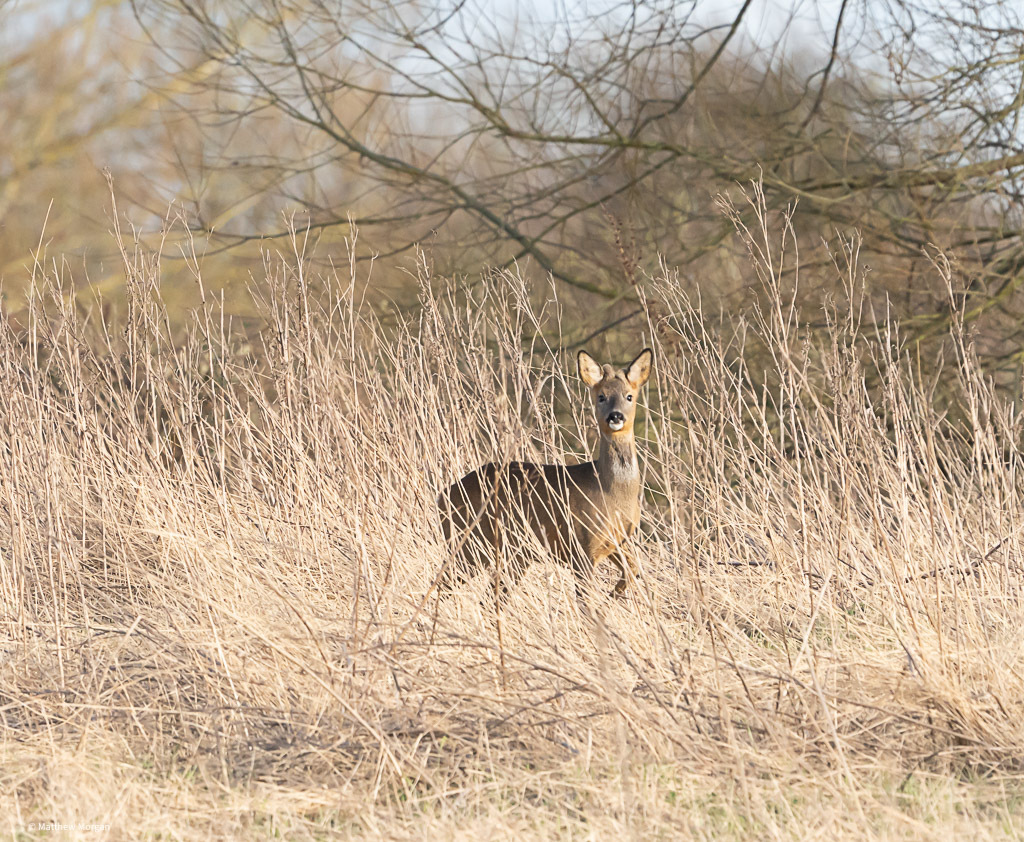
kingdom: Animalia
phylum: Chordata
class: Mammalia
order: Artiodactyla
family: Cervidae
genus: Capreolus
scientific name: Capreolus capreolus
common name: Western roe deer
